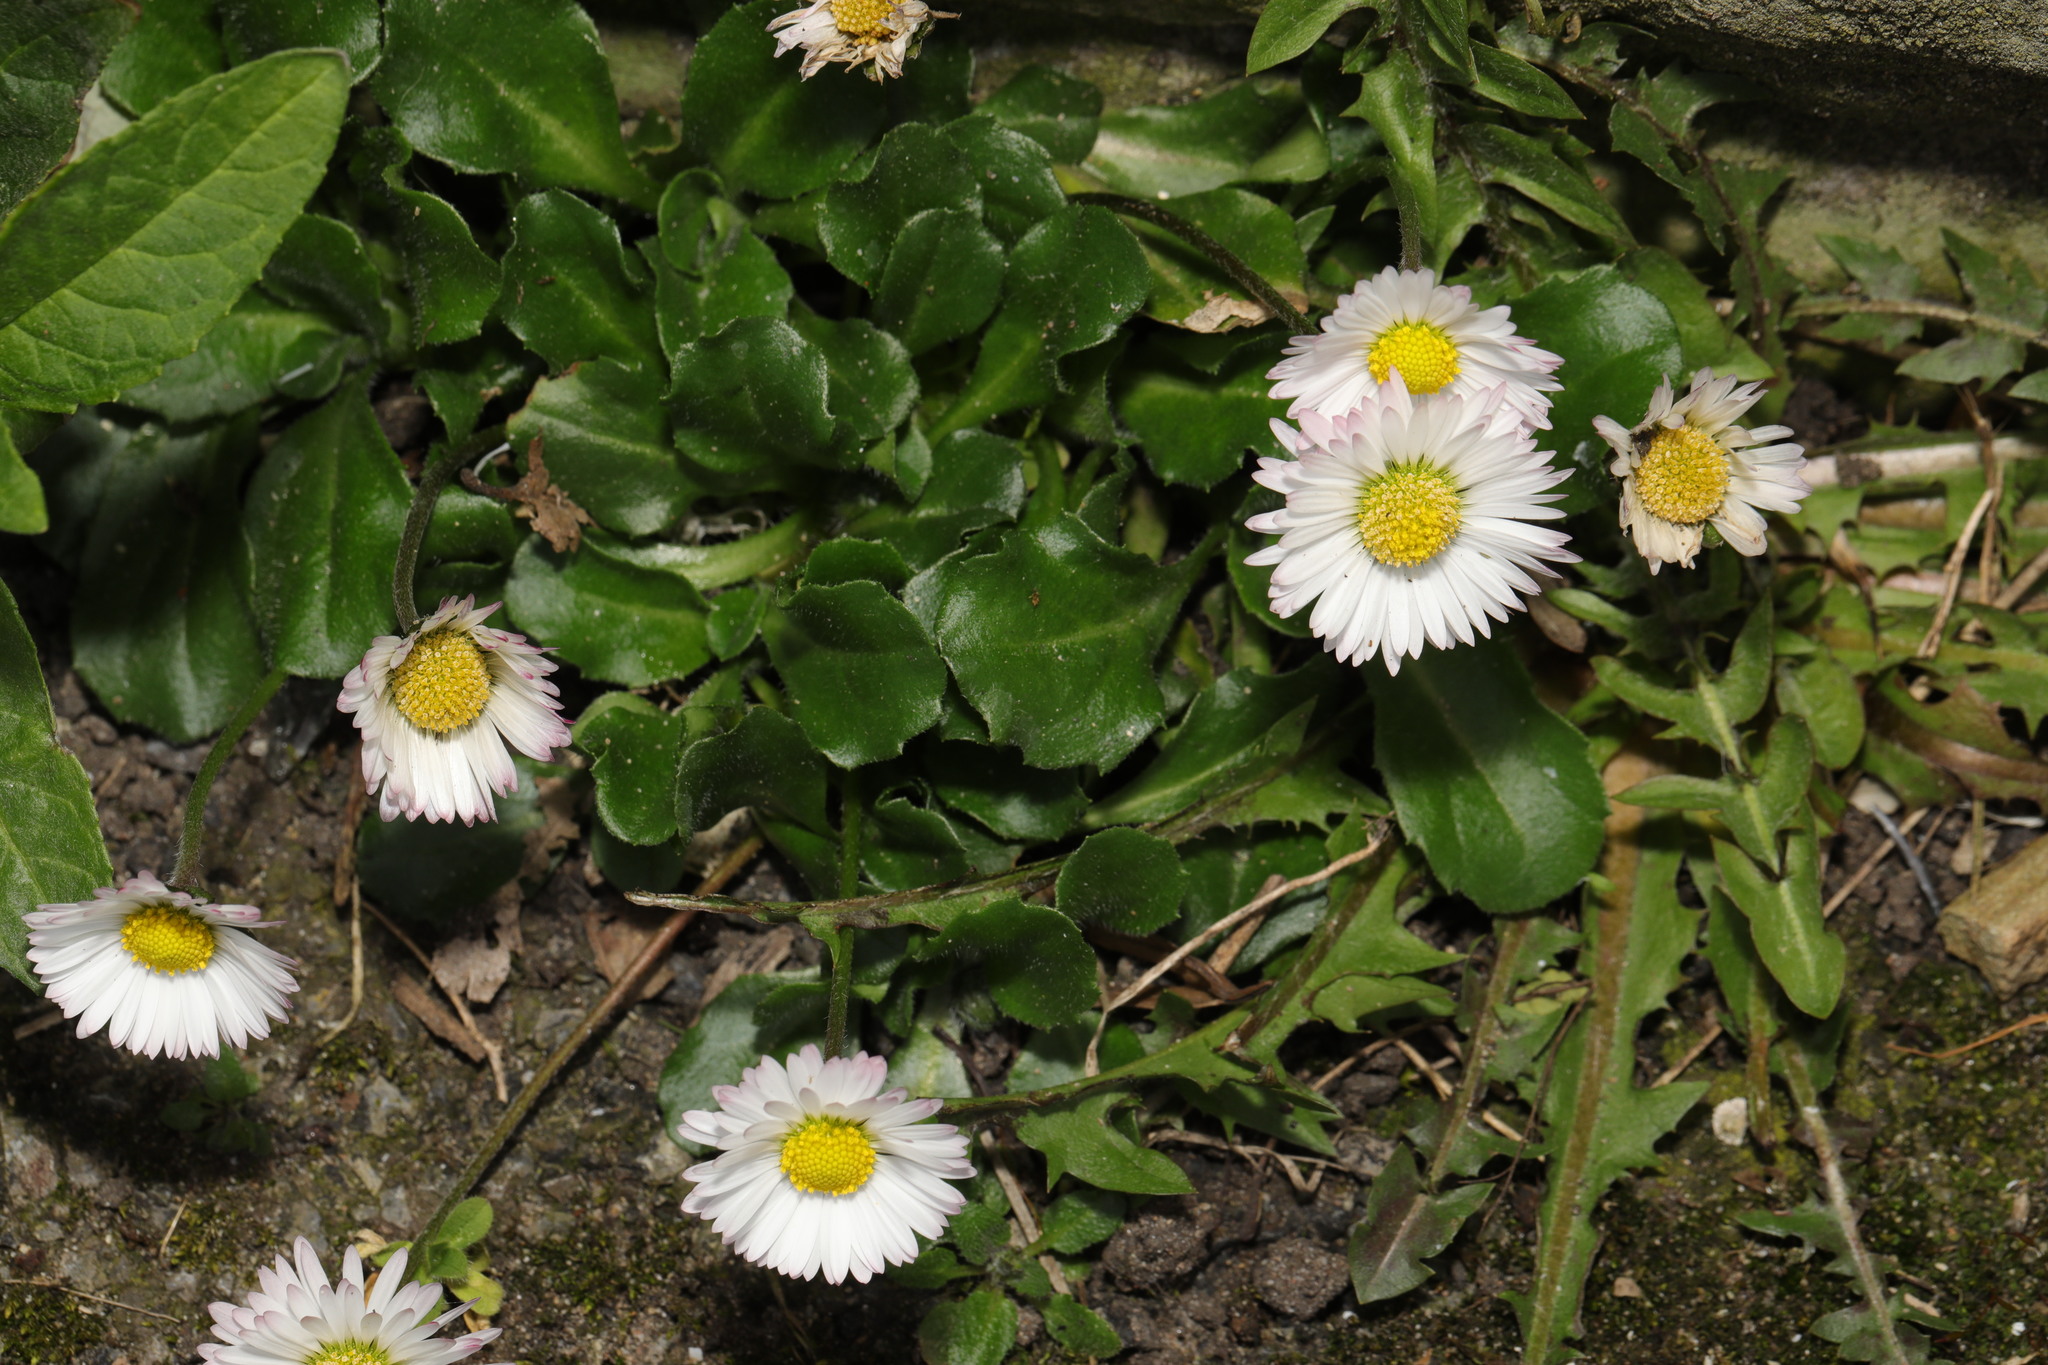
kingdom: Plantae
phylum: Tracheophyta
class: Magnoliopsida
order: Asterales
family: Asteraceae
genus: Bellis
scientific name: Bellis perennis
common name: Lawndaisy
